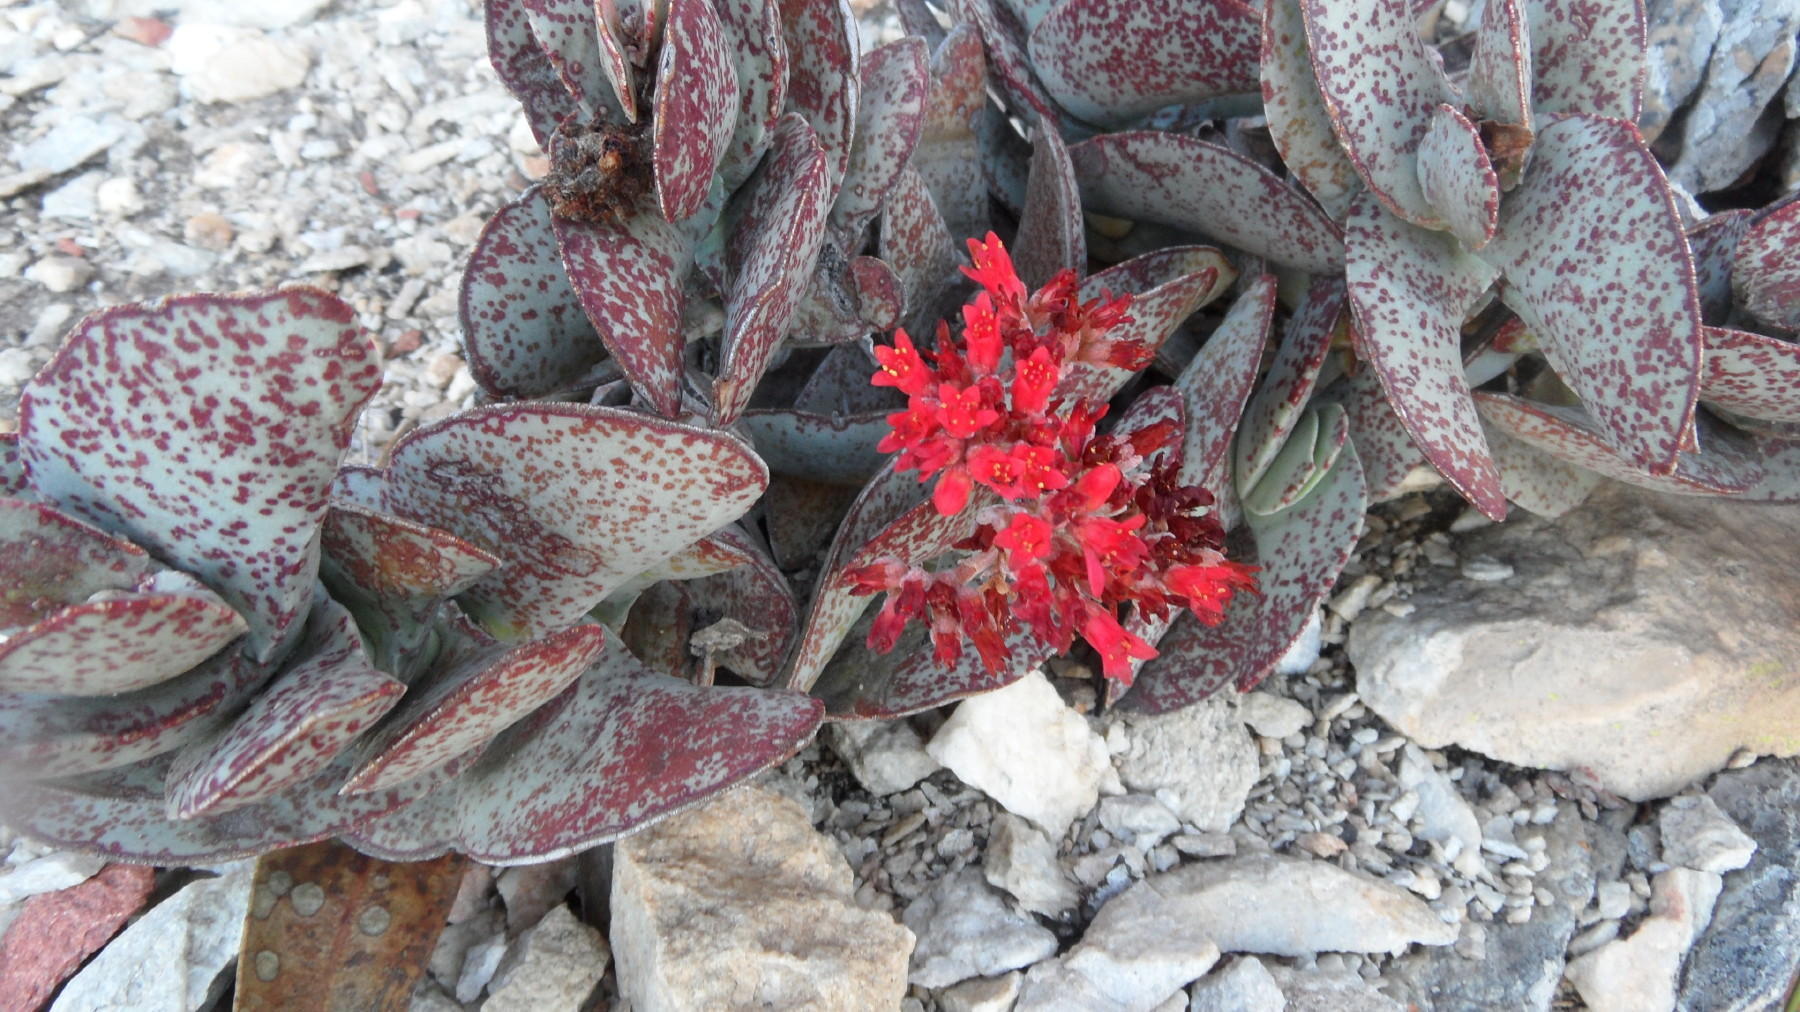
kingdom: Plantae
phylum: Tracheophyta
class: Magnoliopsida
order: Saxifragales
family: Crassulaceae
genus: Crassula
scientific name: Crassula perfoliata
